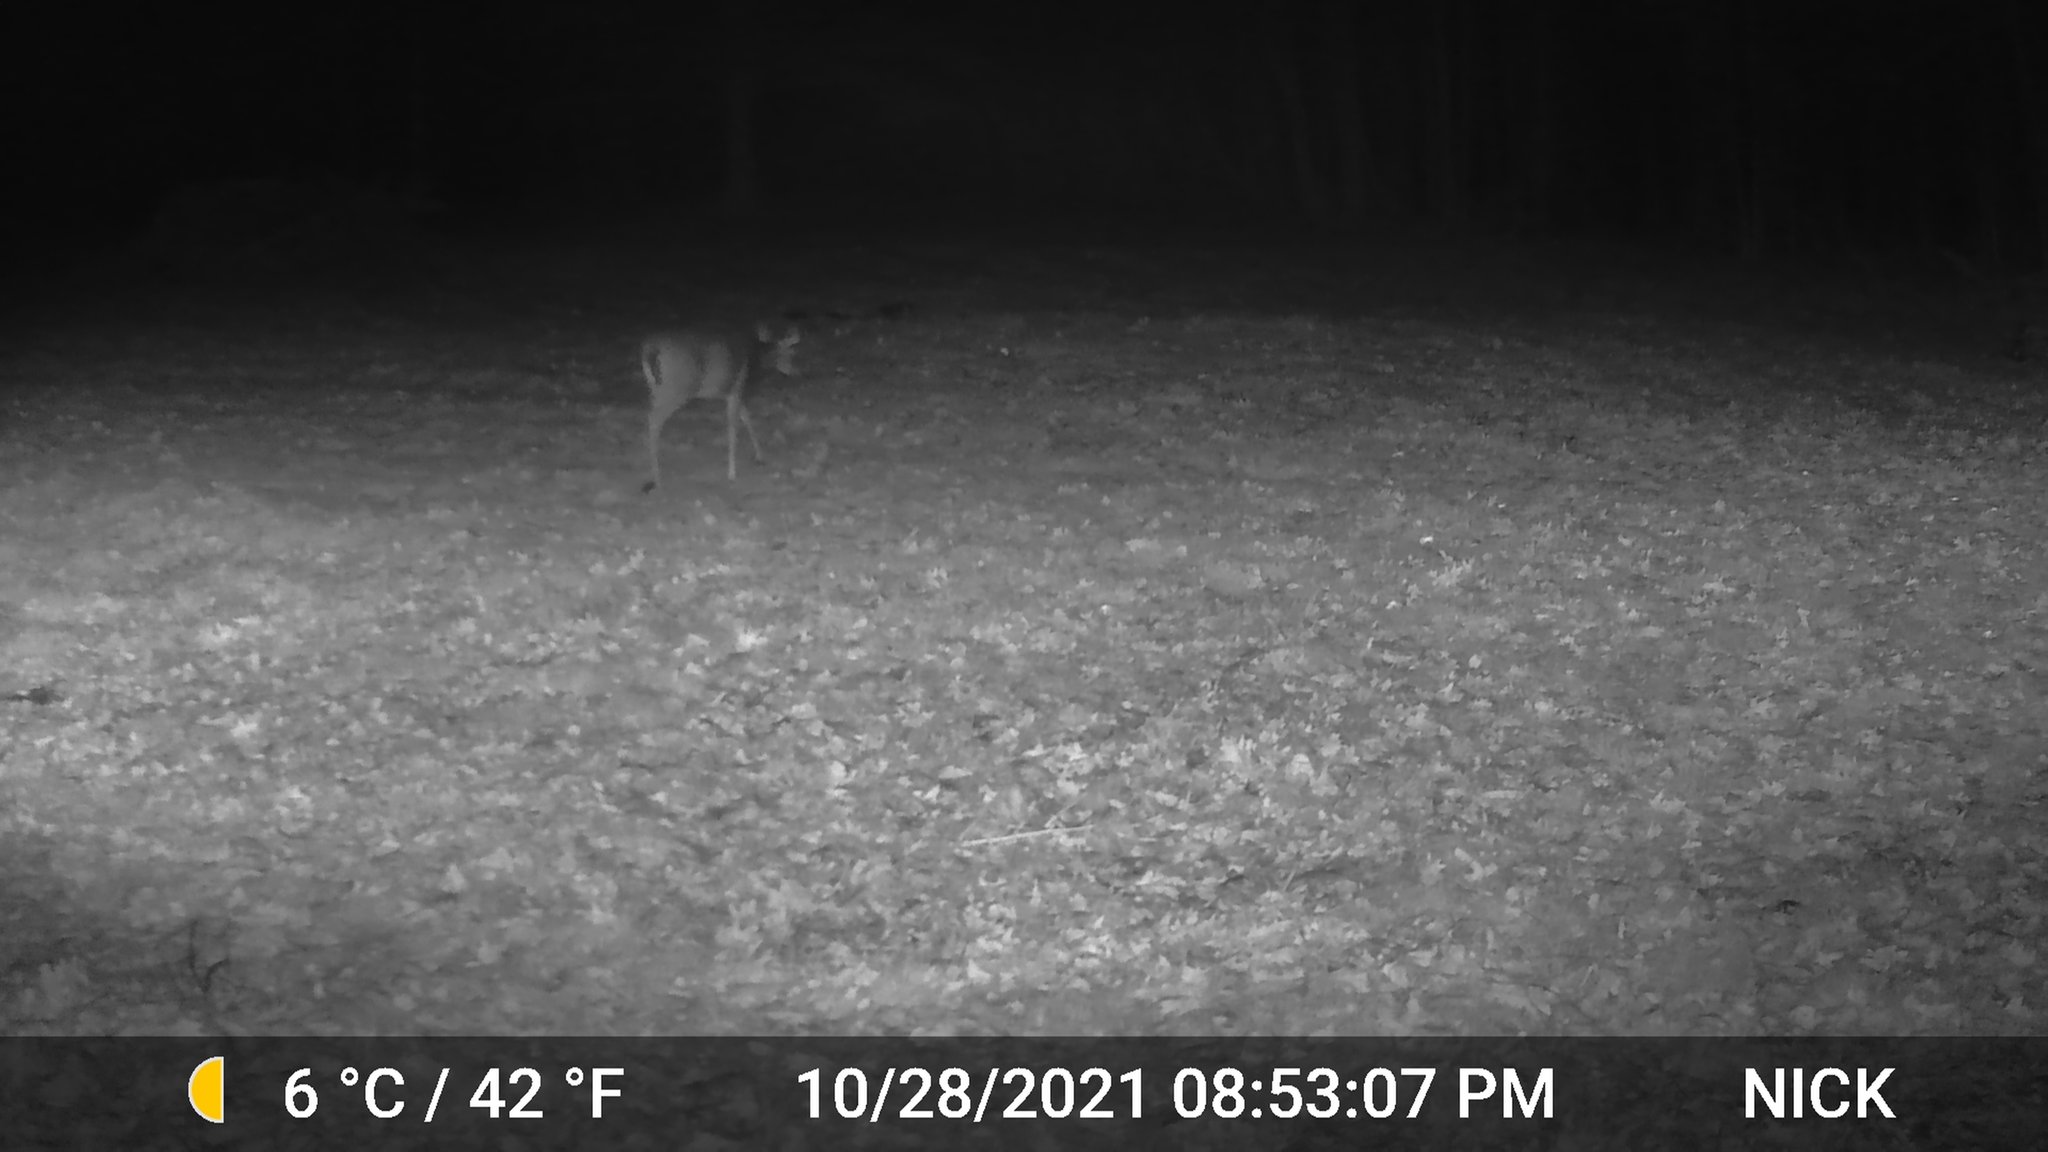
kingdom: Animalia
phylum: Chordata
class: Mammalia
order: Artiodactyla
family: Cervidae
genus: Odocoileus
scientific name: Odocoileus virginianus
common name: White-tailed deer
